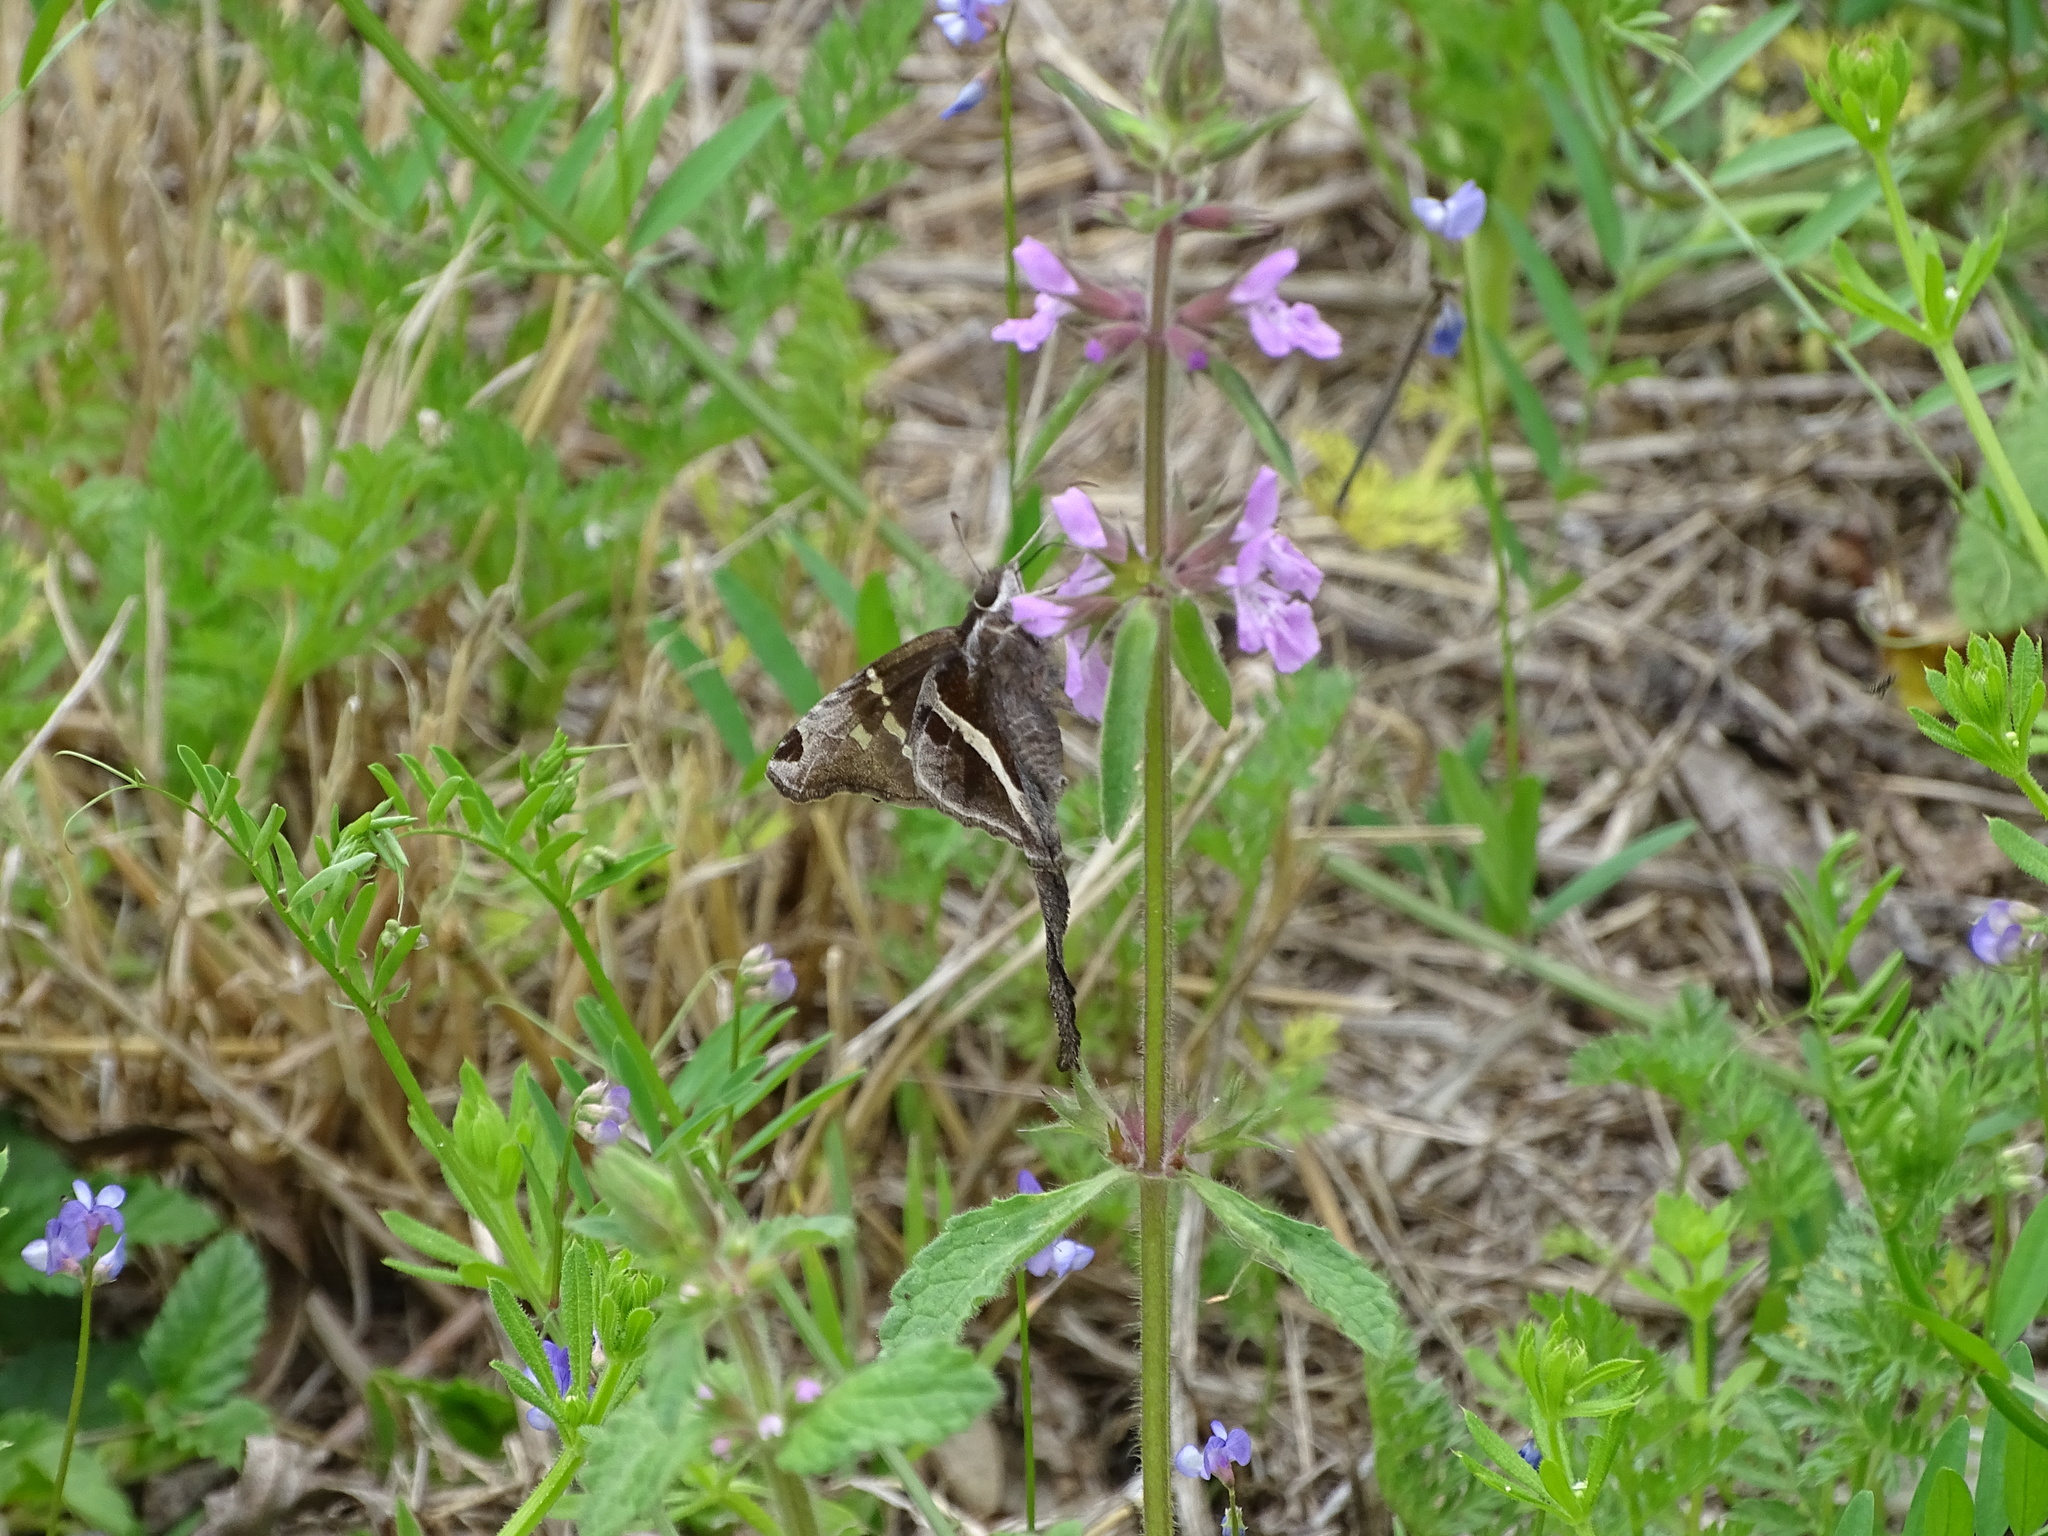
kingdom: Animalia
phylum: Arthropoda
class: Insecta
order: Lepidoptera
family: Hesperiidae
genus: Chioides
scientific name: Chioides catillus
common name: Silverbanded skipper
